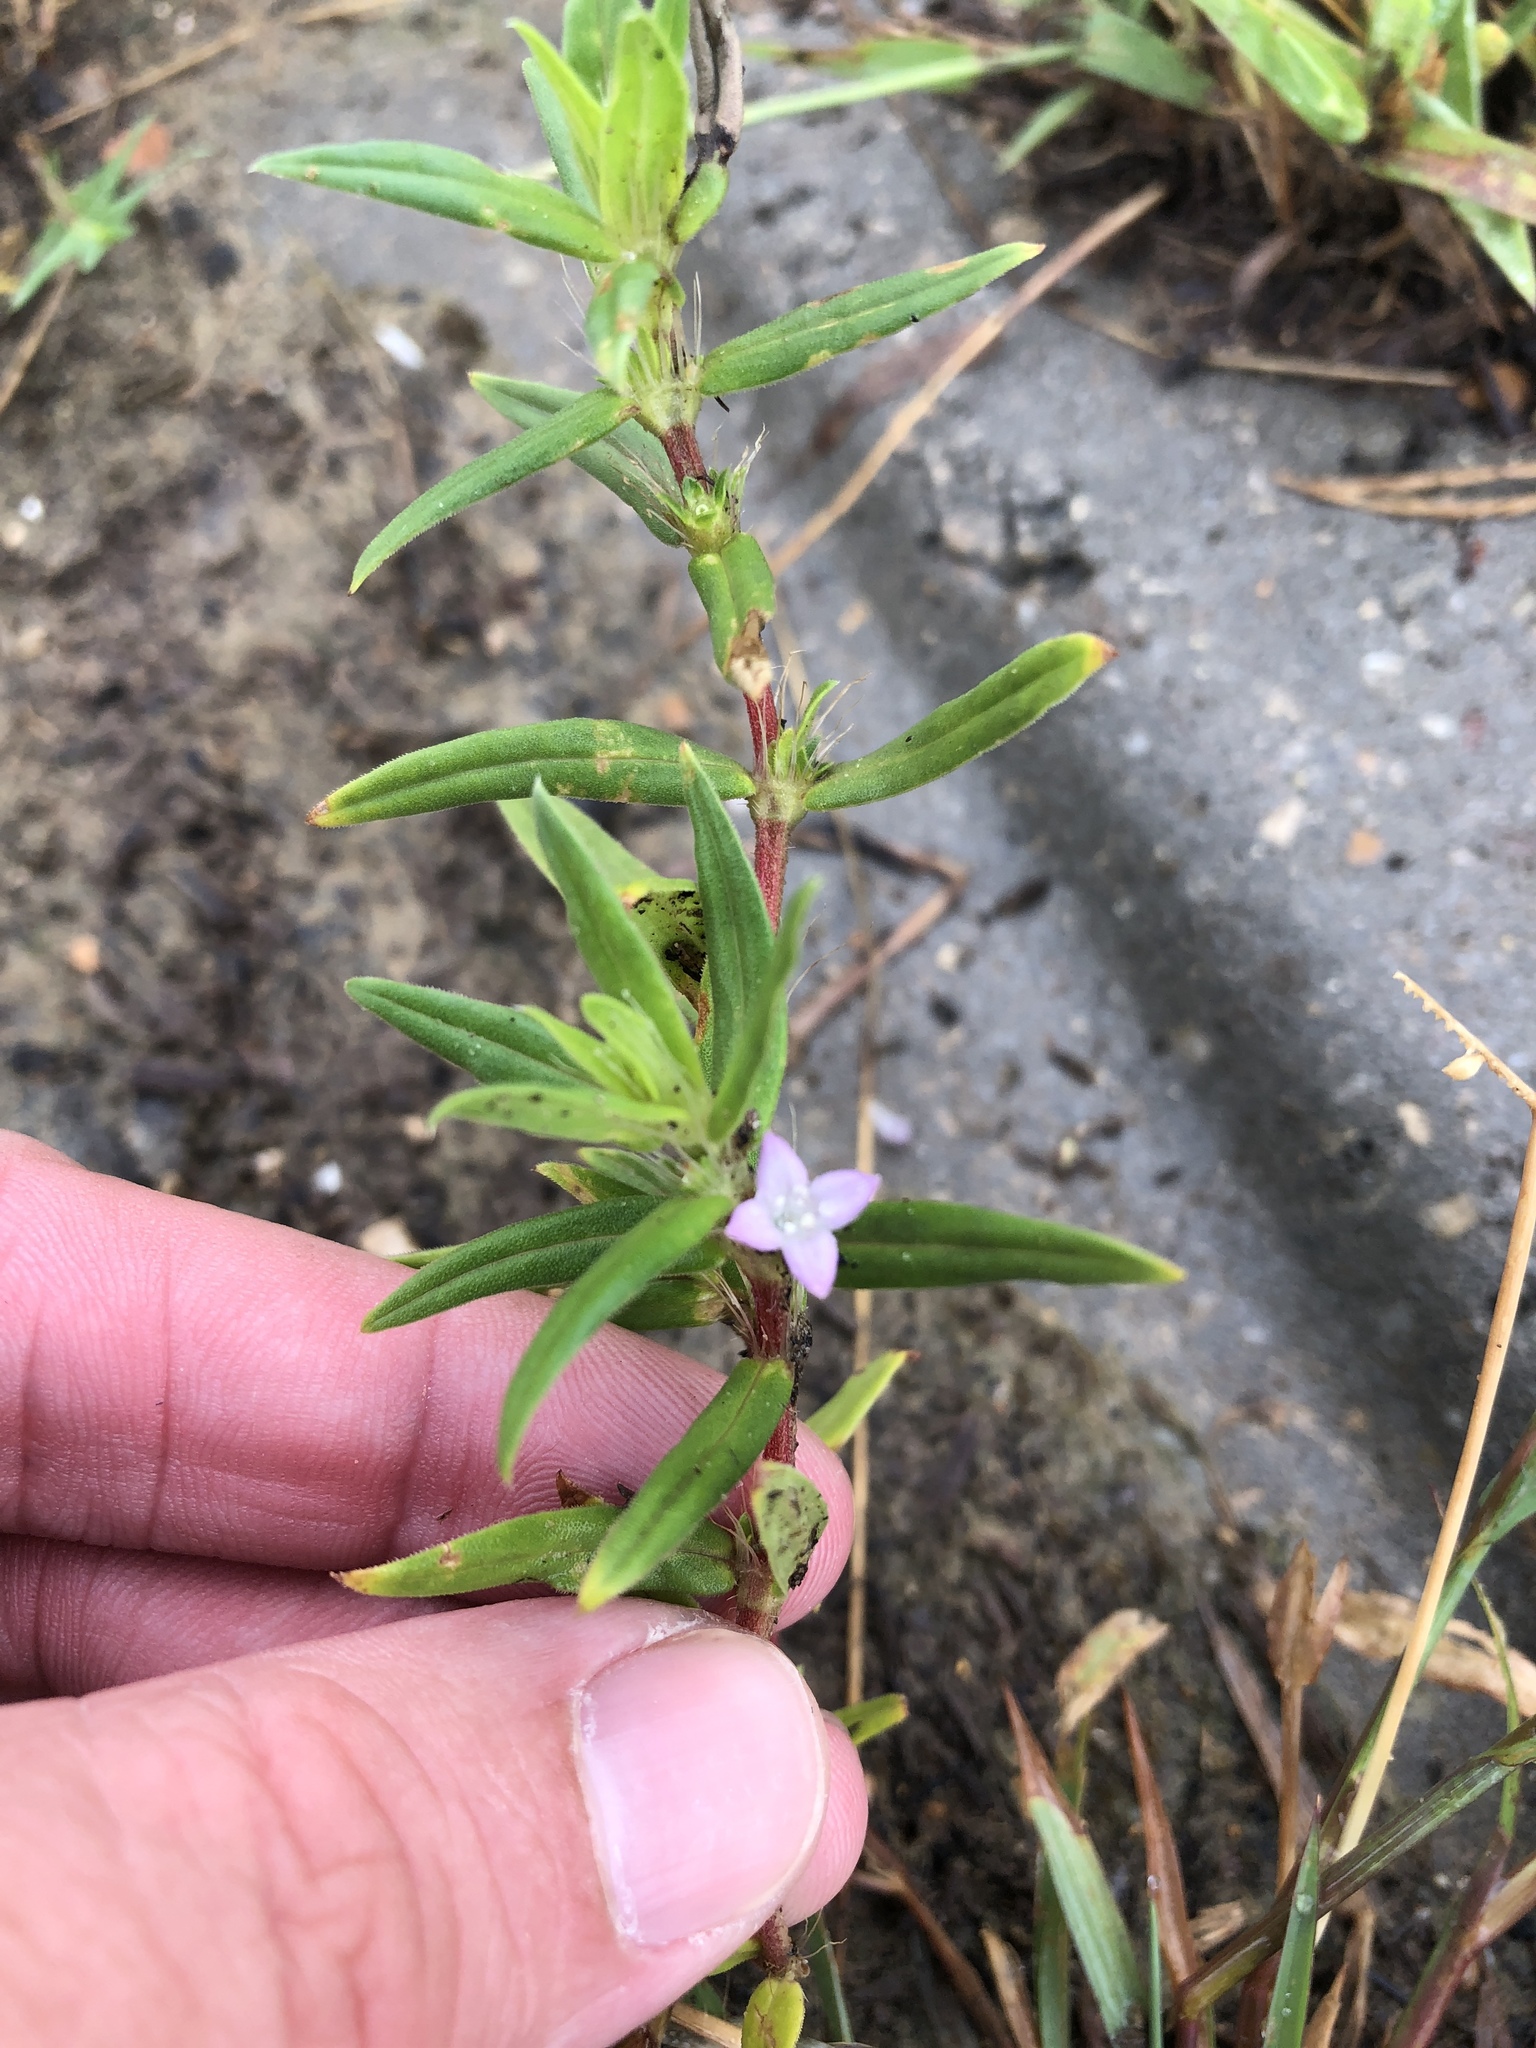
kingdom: Plantae
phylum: Tracheophyta
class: Magnoliopsida
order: Gentianales
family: Rubiaceae
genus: Hexasepalum
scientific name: Hexasepalum teres
